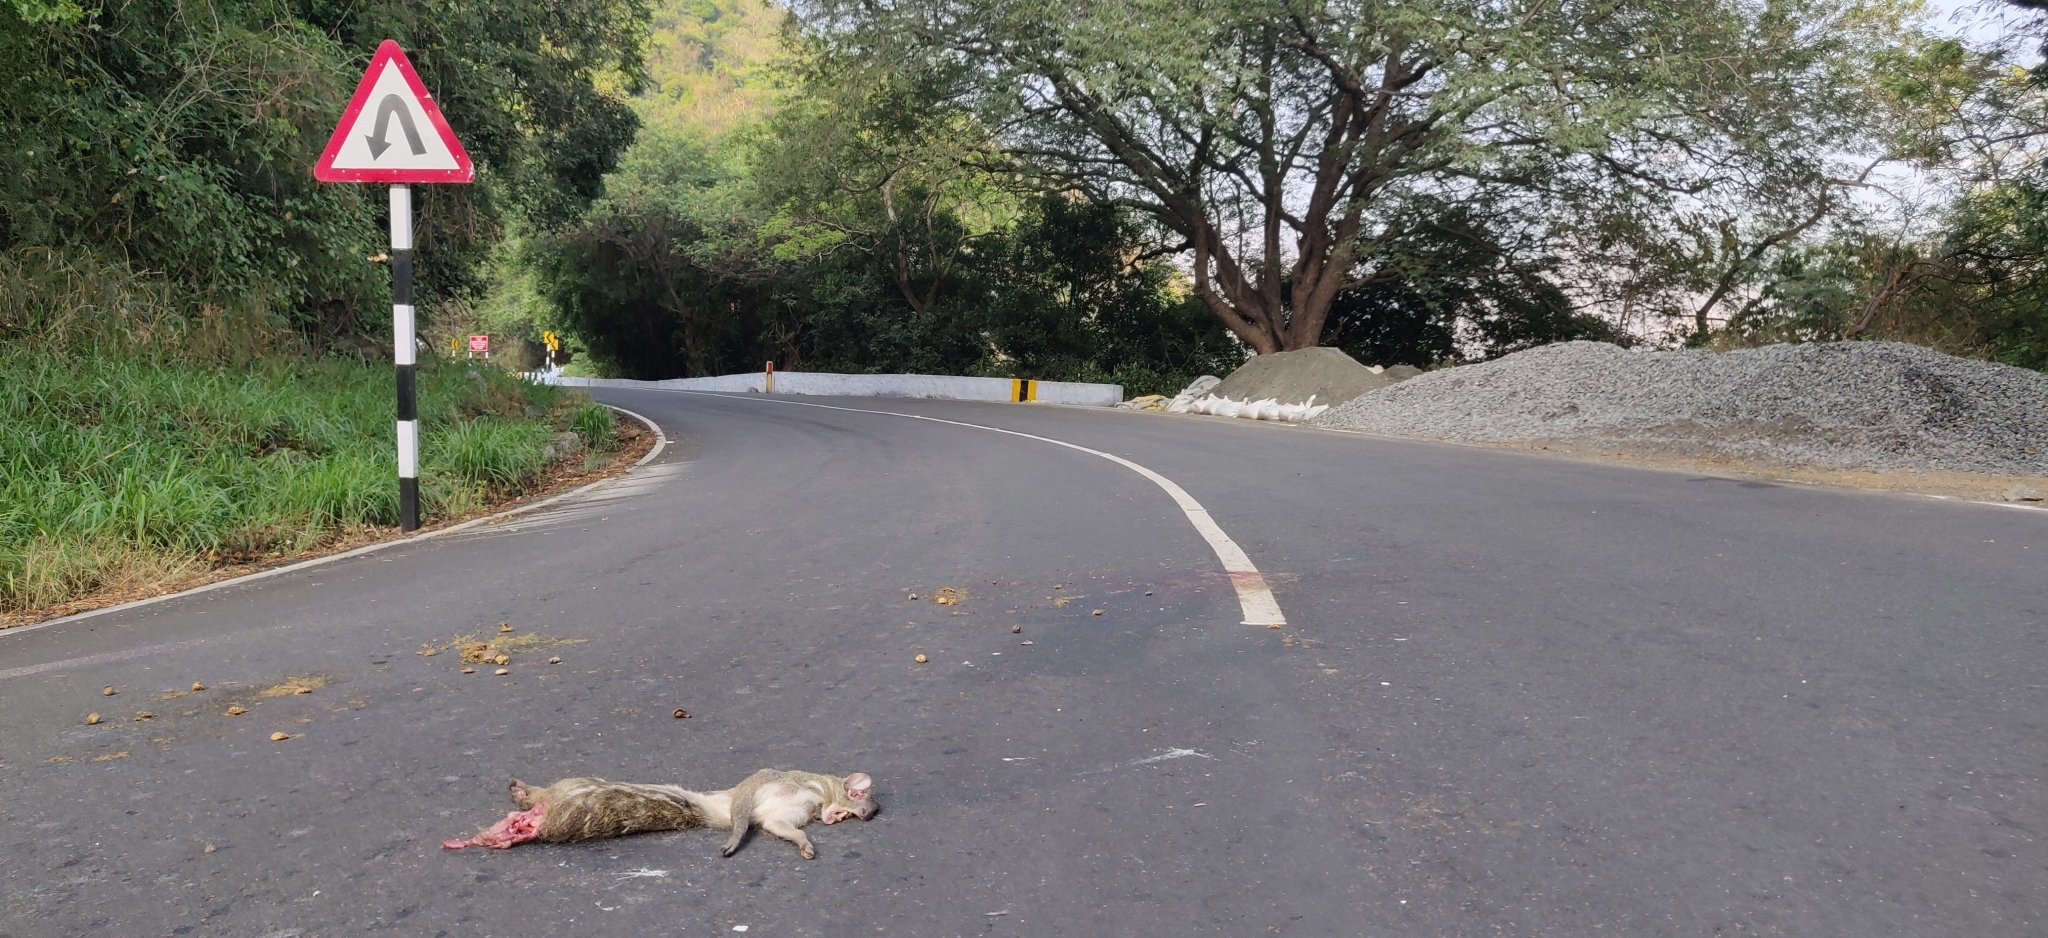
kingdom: Animalia
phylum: Chordata
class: Mammalia
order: Artiodactyla
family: Tragulidae
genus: Moschiola
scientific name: Moschiola indica
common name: Indian chevrotain
